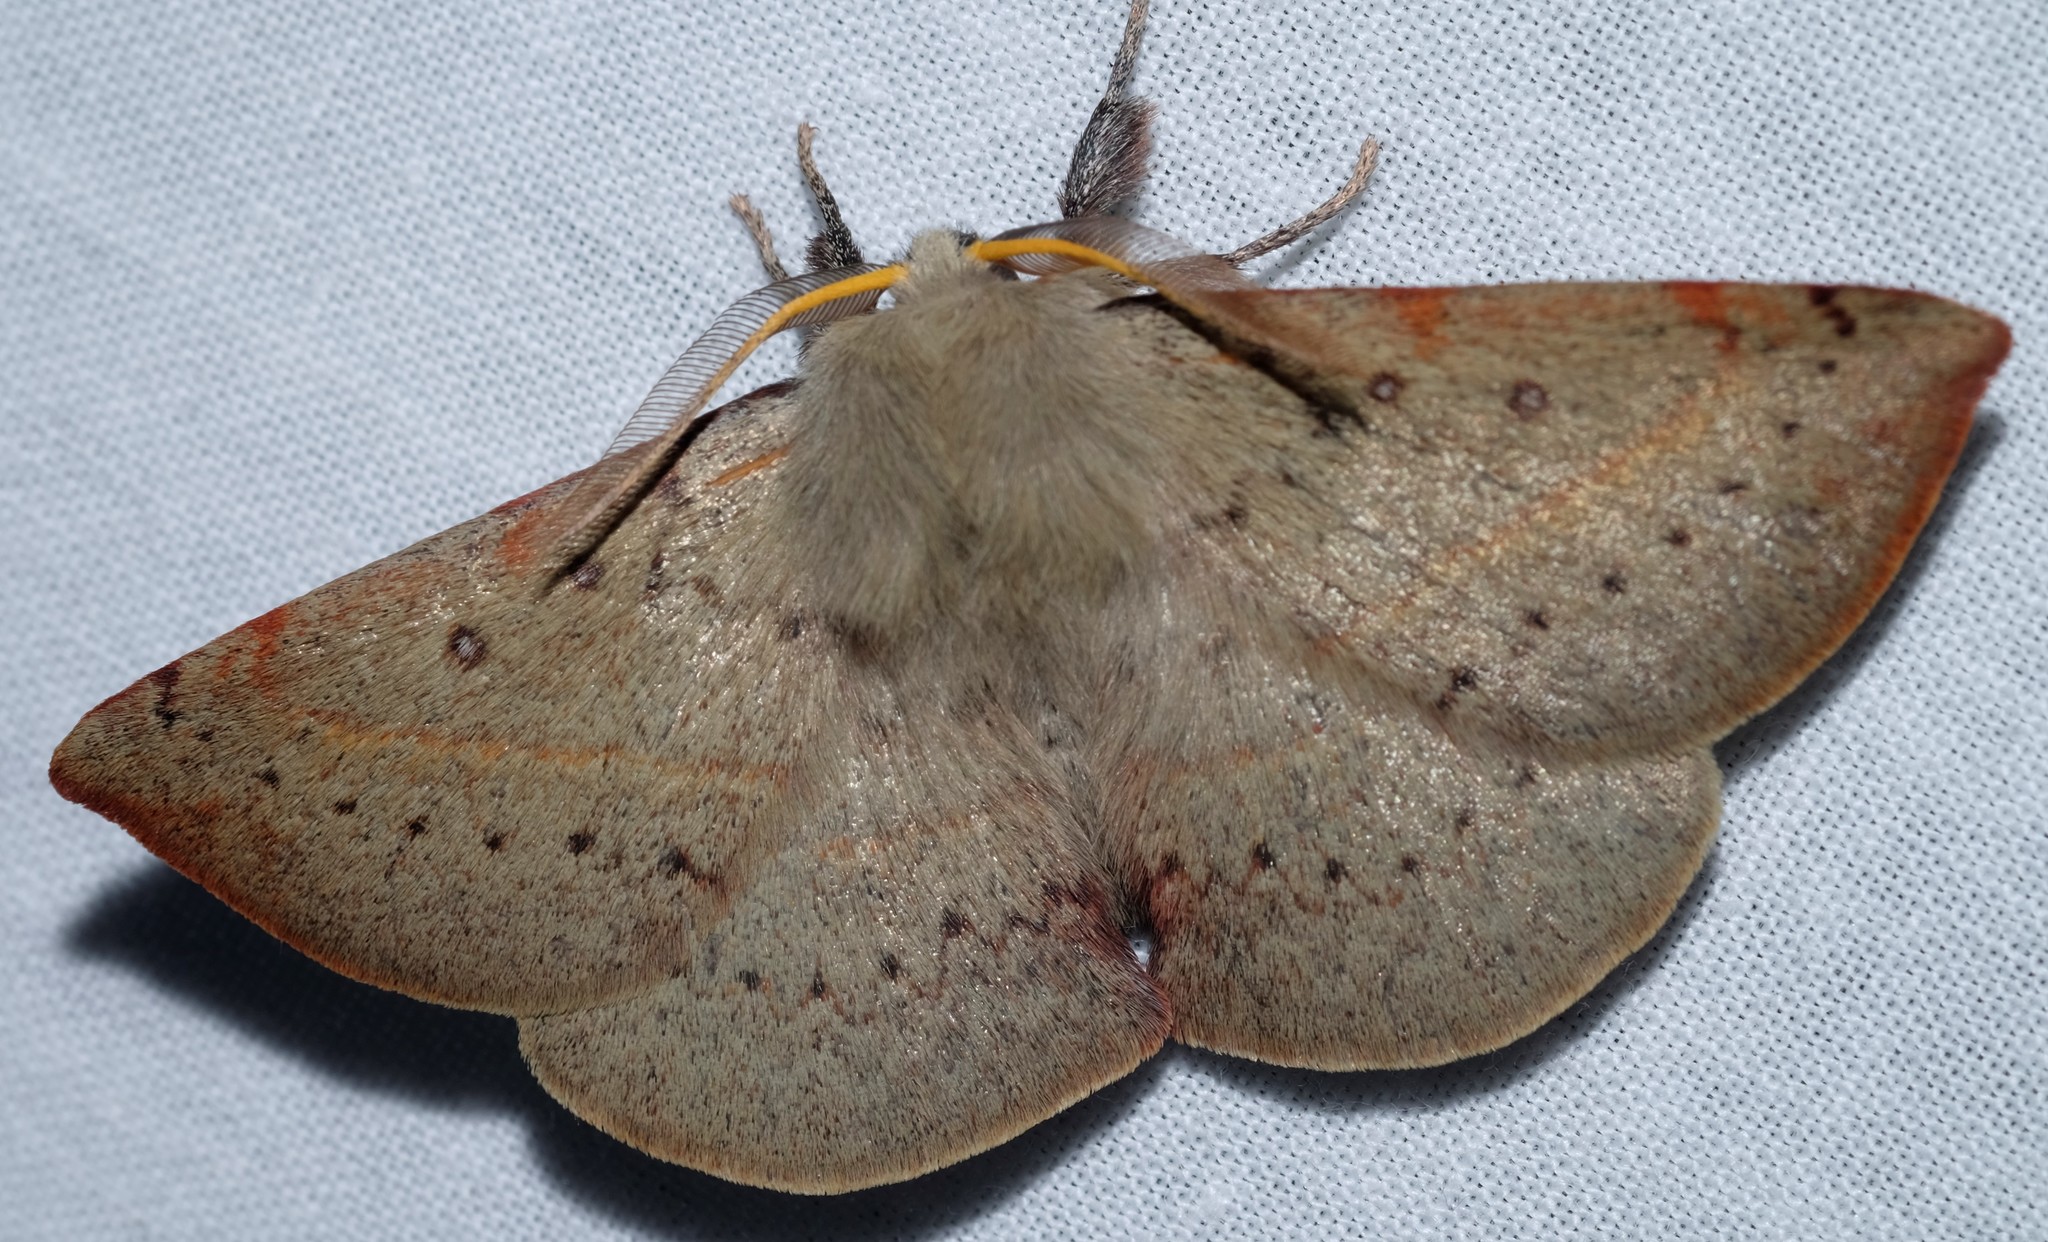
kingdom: Animalia
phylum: Arthropoda
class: Insecta
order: Lepidoptera
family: Anthelidae
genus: Anthela
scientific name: Anthela acuta
